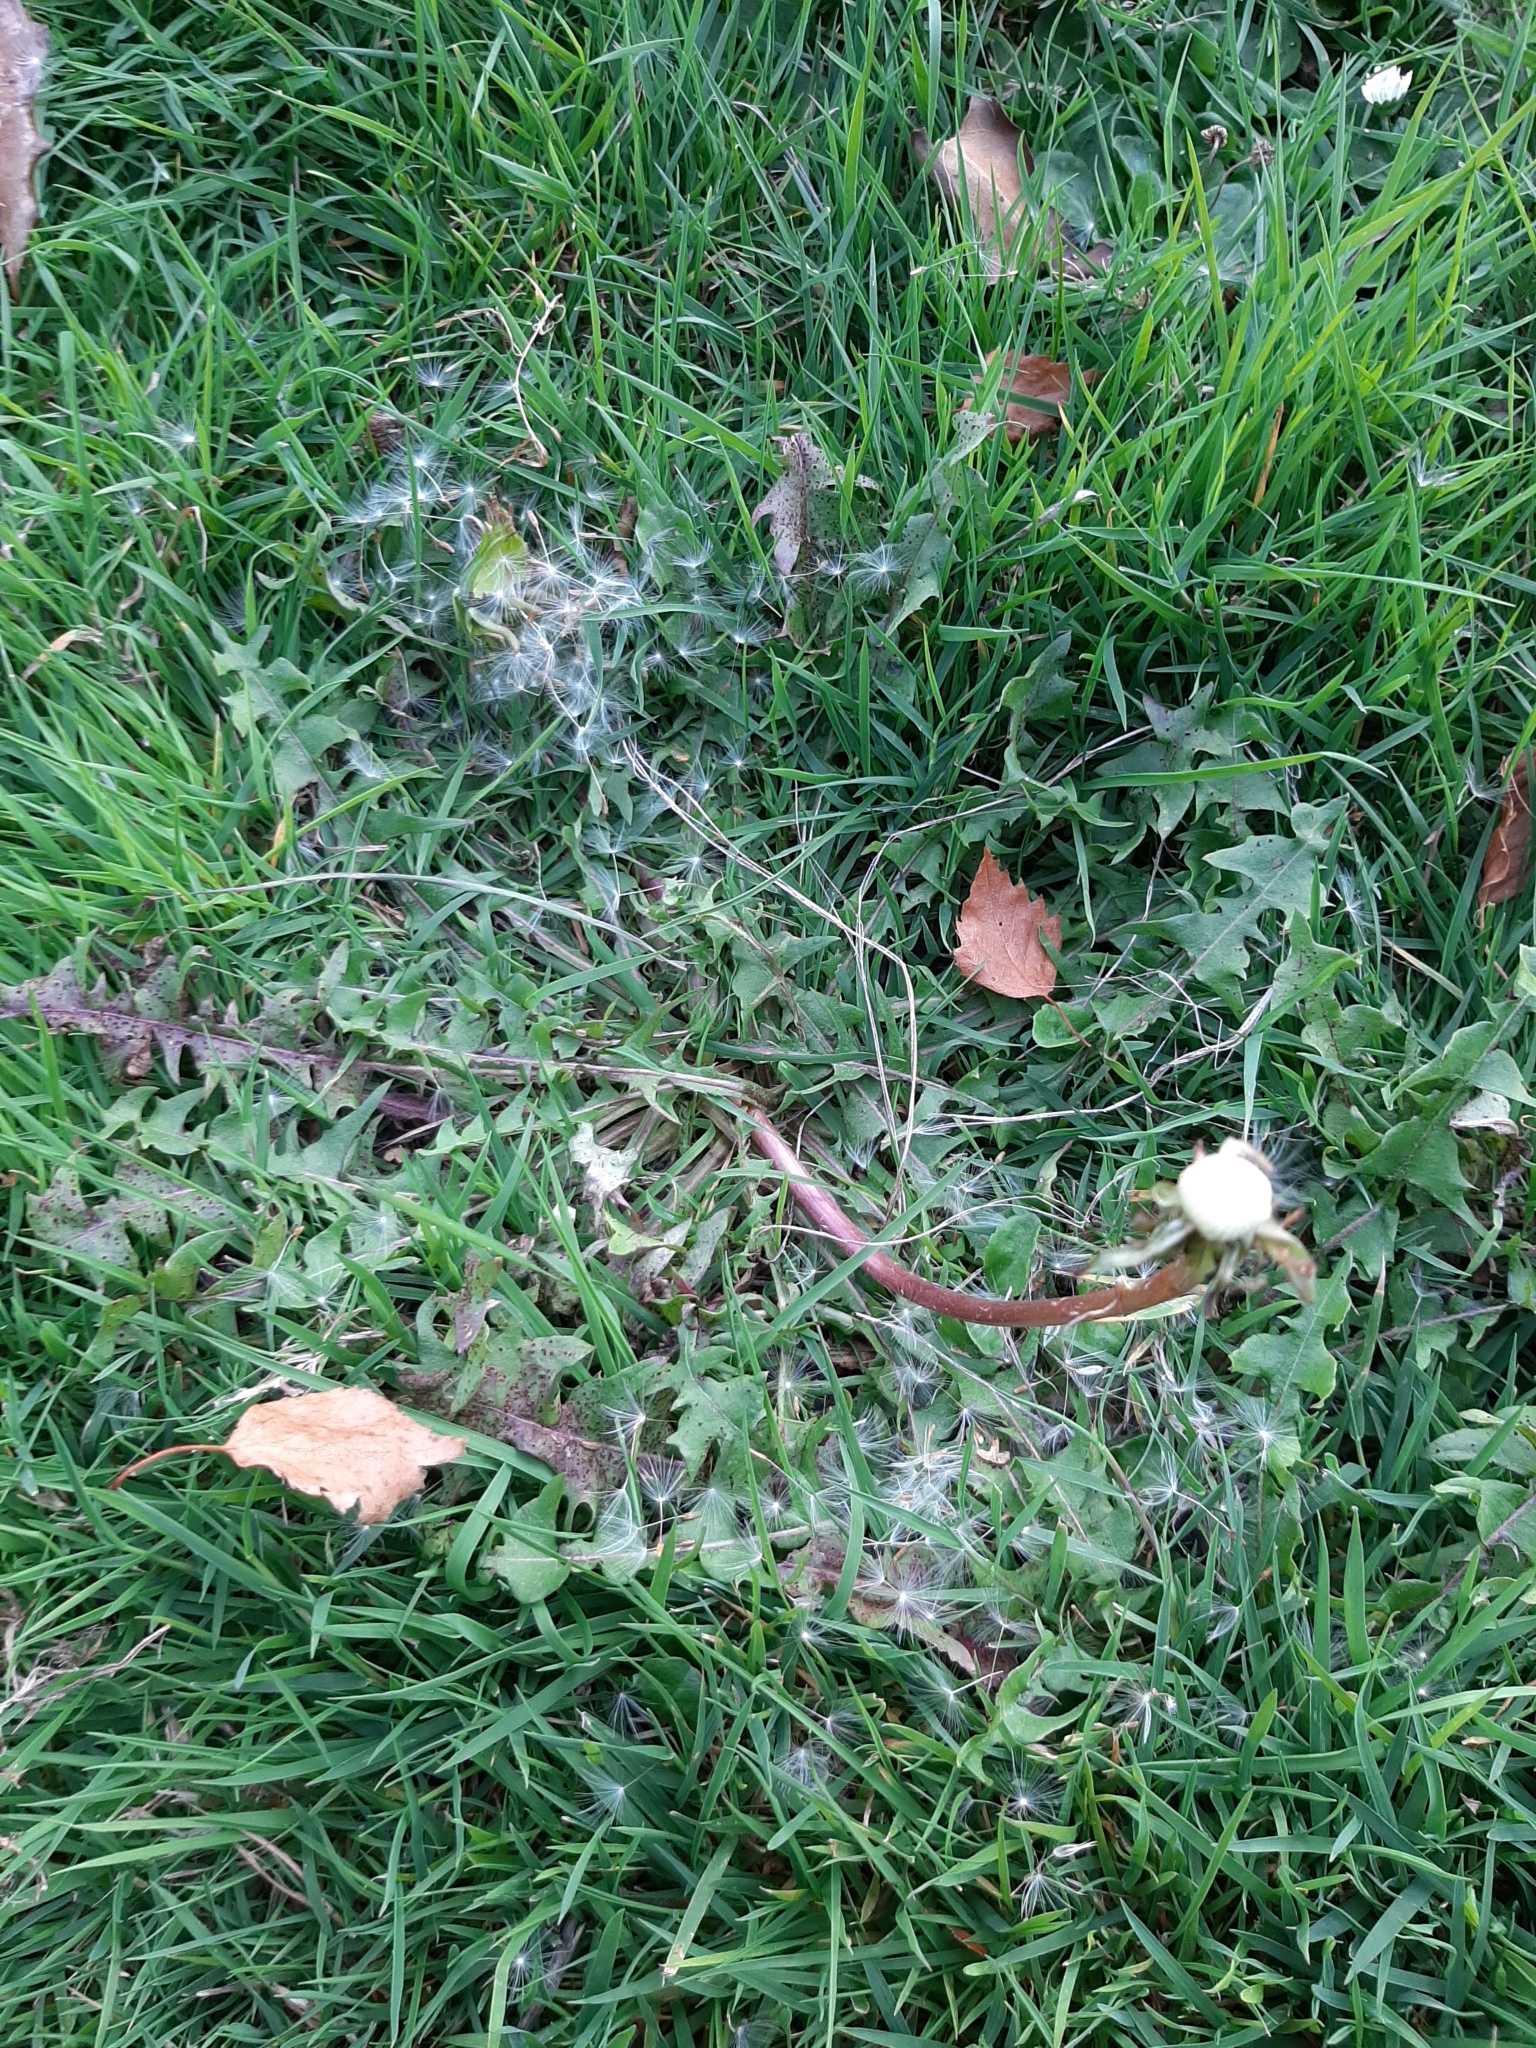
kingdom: Plantae
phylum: Tracheophyta
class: Magnoliopsida
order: Asterales
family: Asteraceae
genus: Taraxacum
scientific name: Taraxacum officinale
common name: Common dandelion
